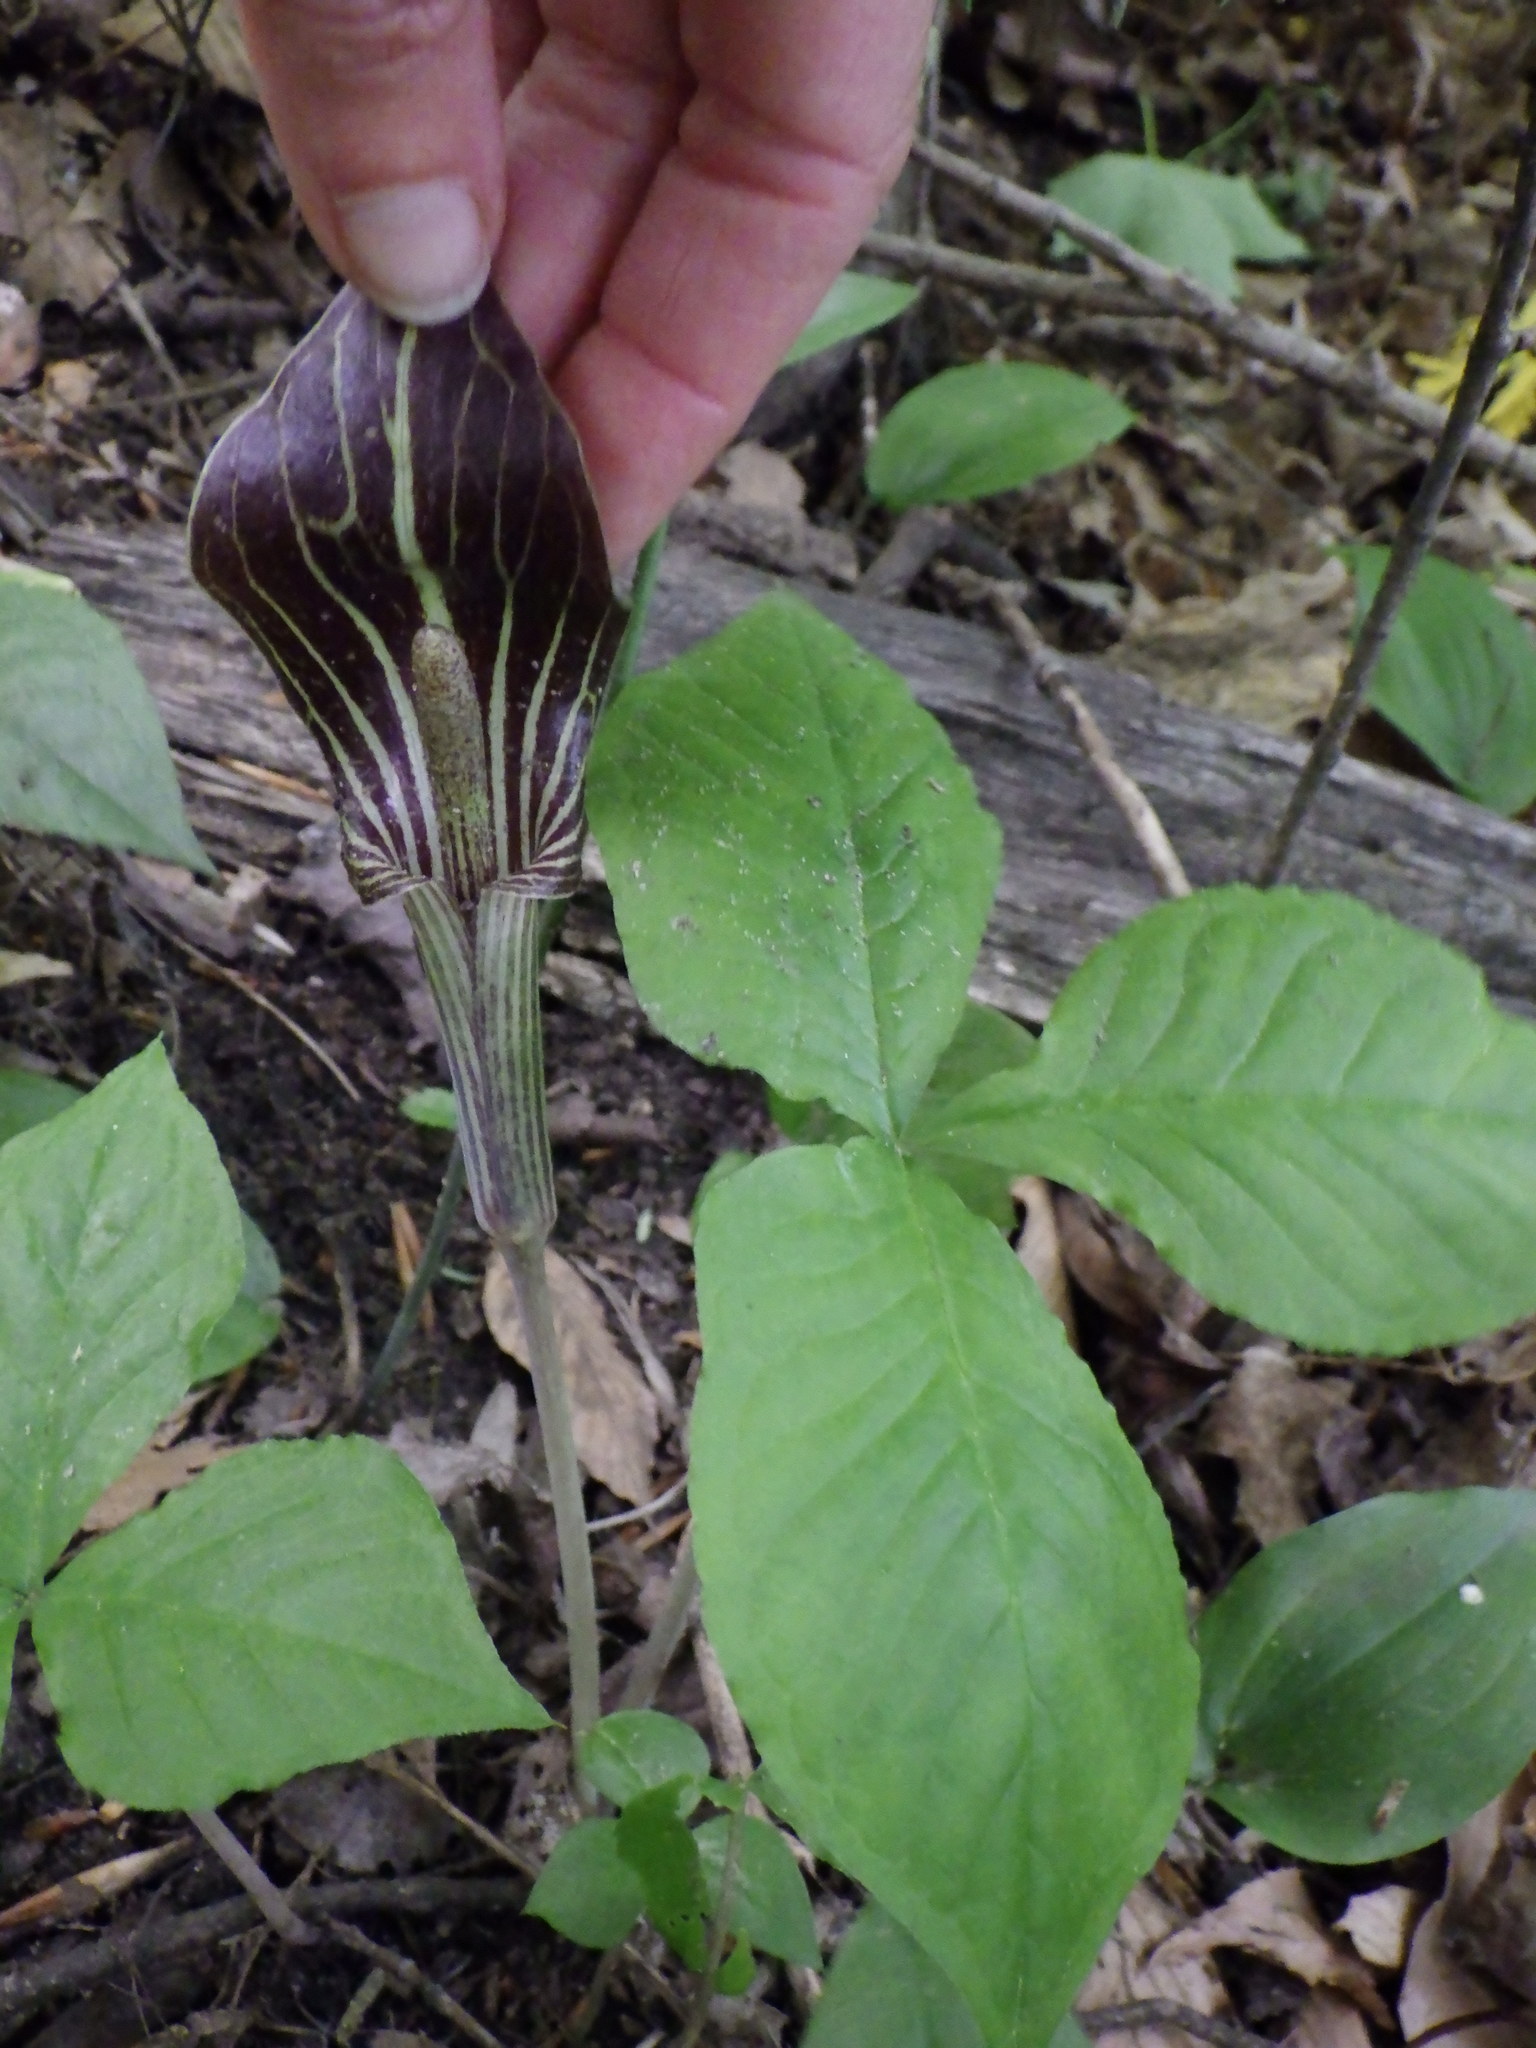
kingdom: Plantae
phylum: Tracheophyta
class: Liliopsida
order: Alismatales
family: Araceae
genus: Arisaema
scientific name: Arisaema triphyllum
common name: Jack-in-the-pulpit
